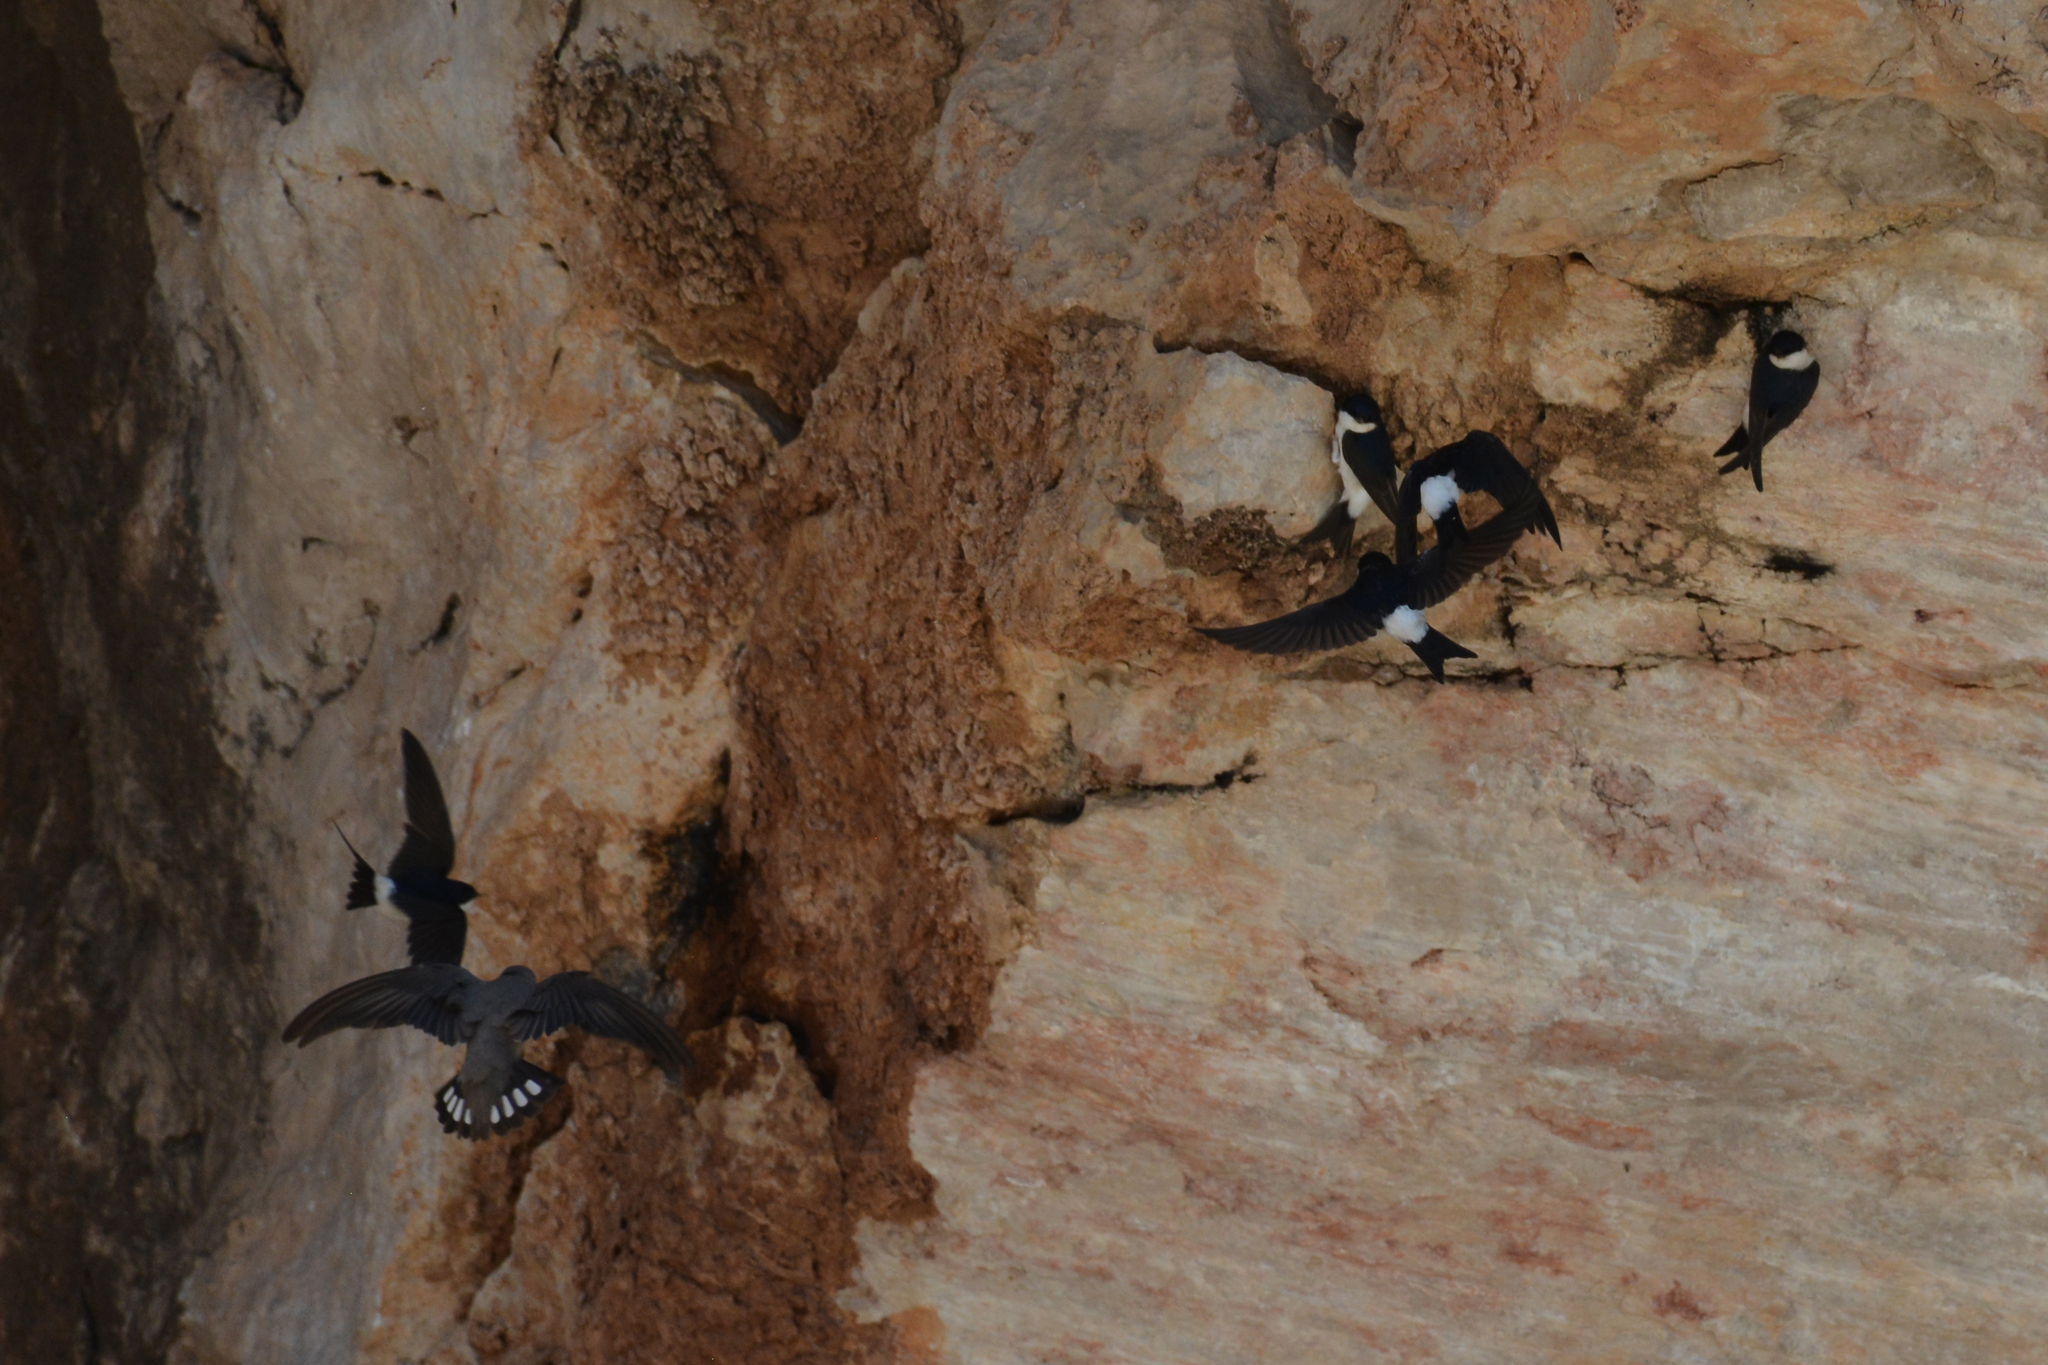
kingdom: Animalia
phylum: Chordata
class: Aves
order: Passeriformes
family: Hirundinidae
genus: Delichon
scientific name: Delichon urbicum
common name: Common house martin
